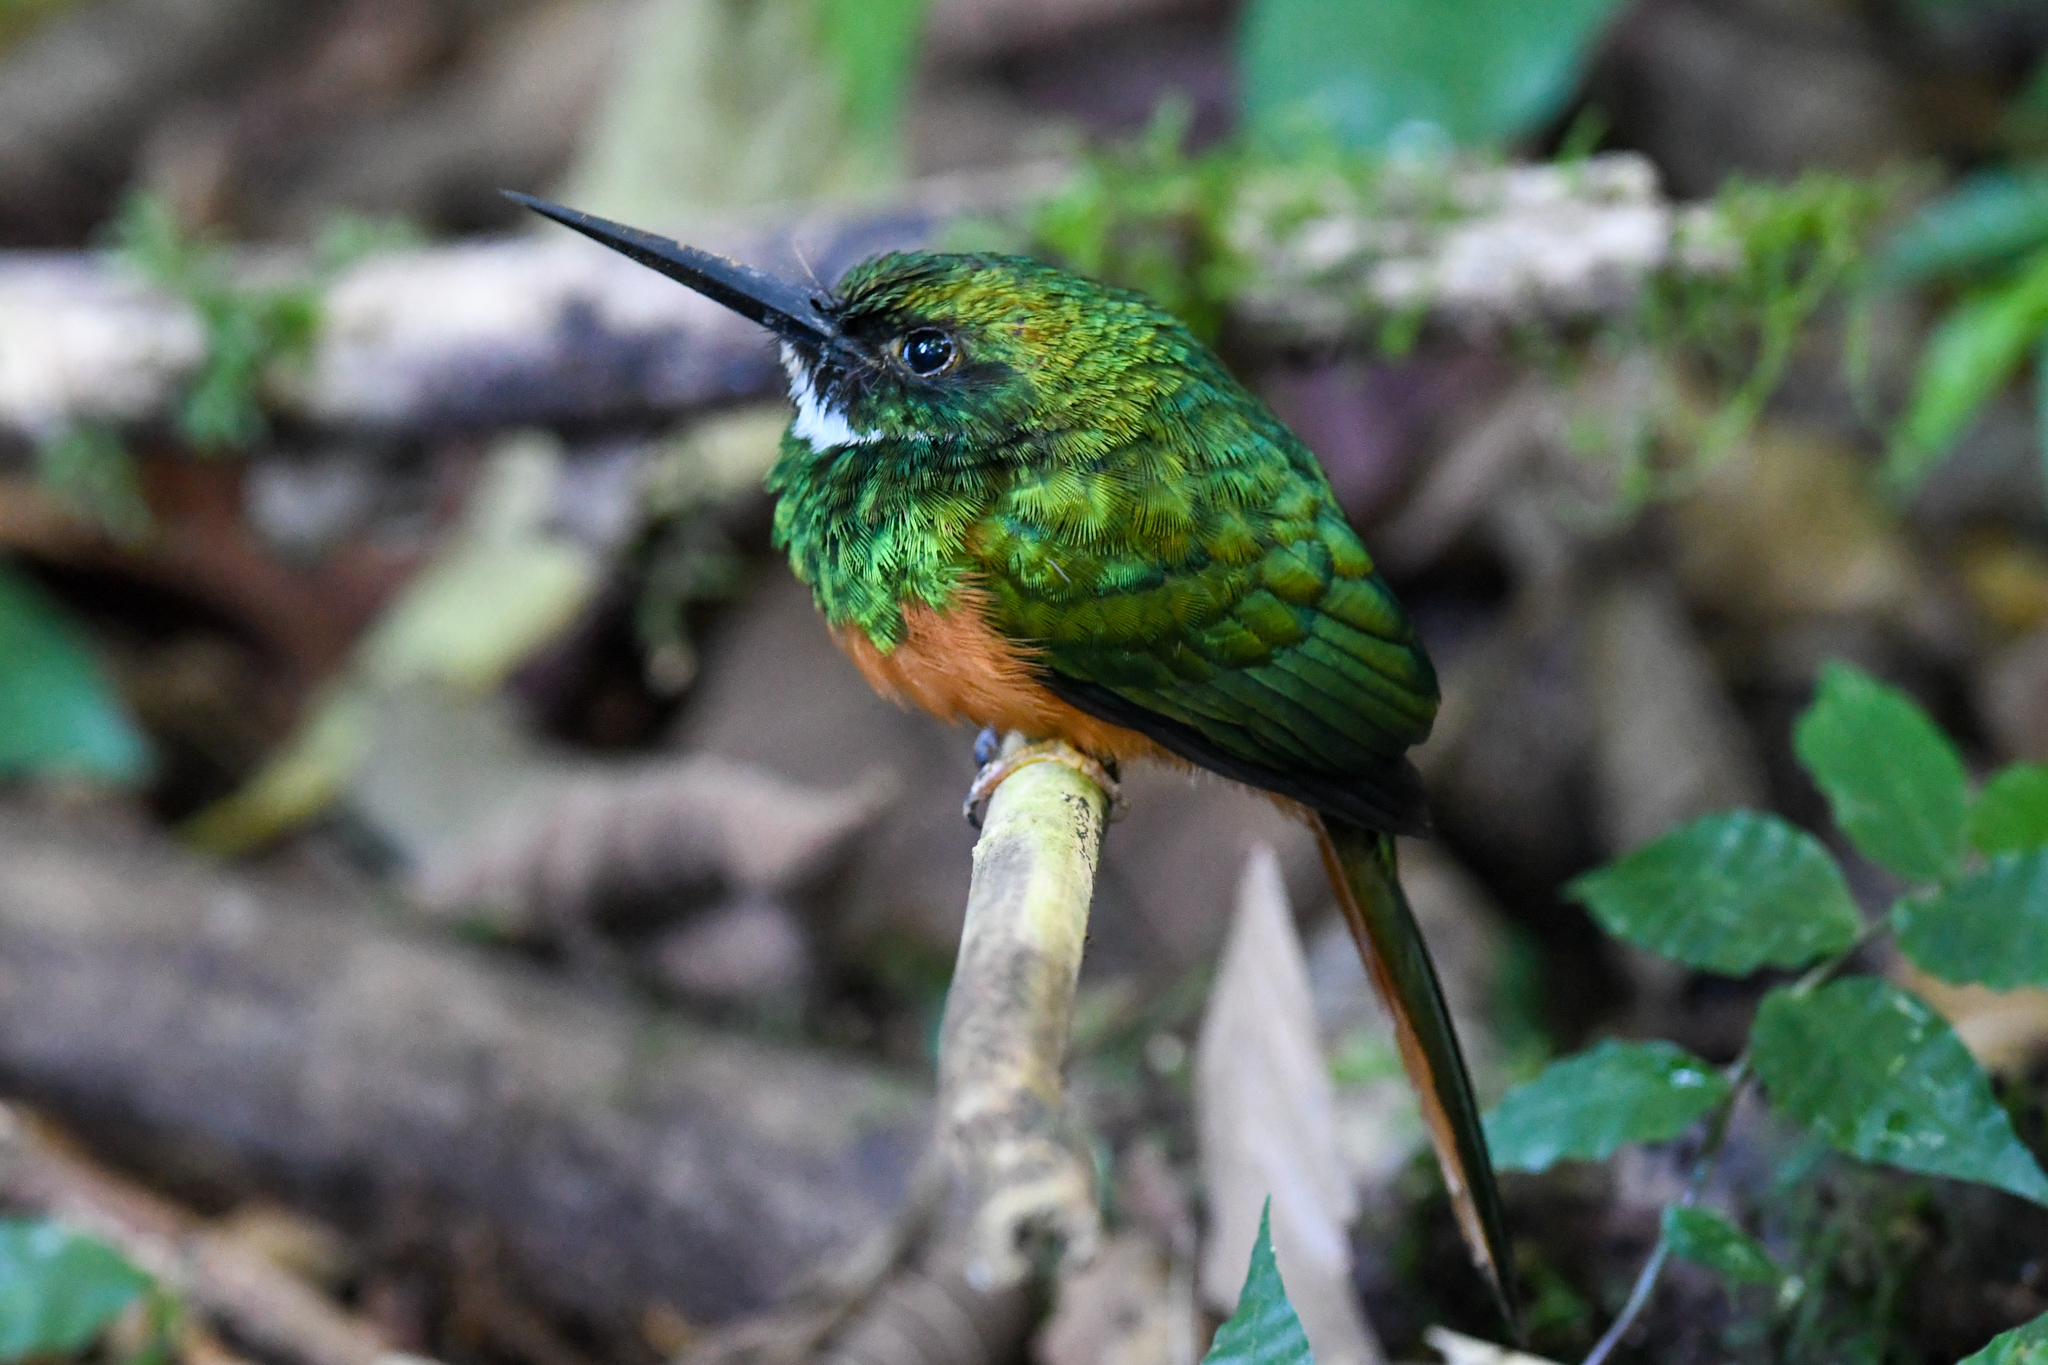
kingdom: Animalia
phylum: Chordata
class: Aves
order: Piciformes
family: Galbulidae
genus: Galbula
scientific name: Galbula ruficauda
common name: Rufous-tailed jacamar
